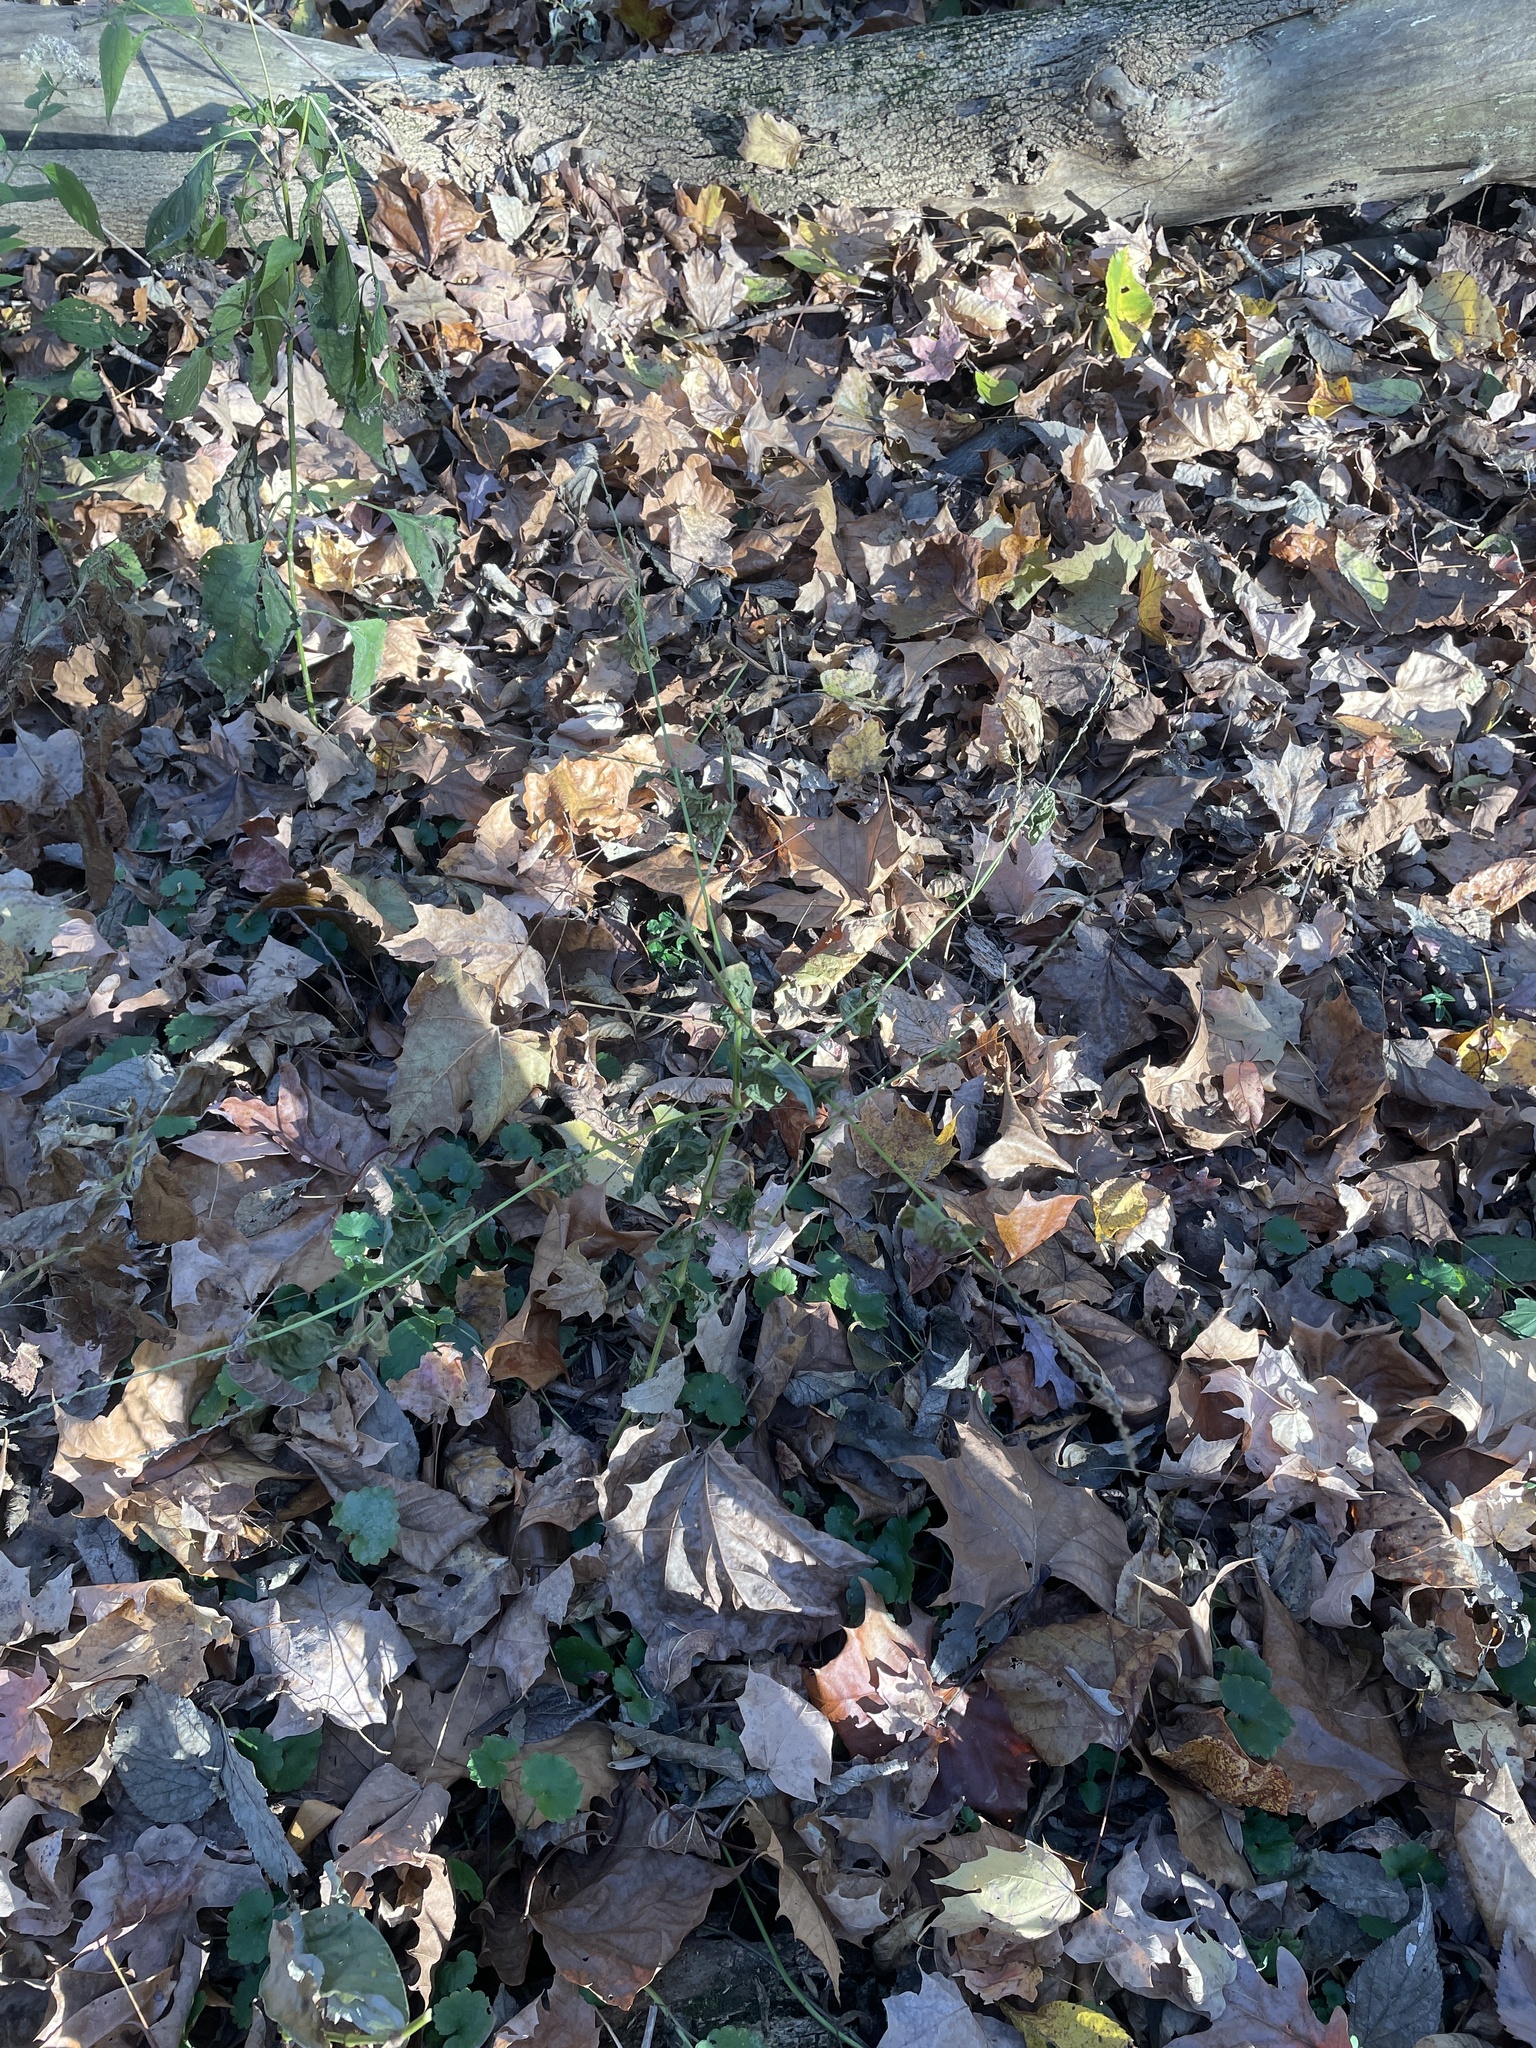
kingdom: Plantae
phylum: Tracheophyta
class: Magnoliopsida
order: Caryophyllales
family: Amaranthaceae
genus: Achyranthes
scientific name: Achyranthes bidentata
